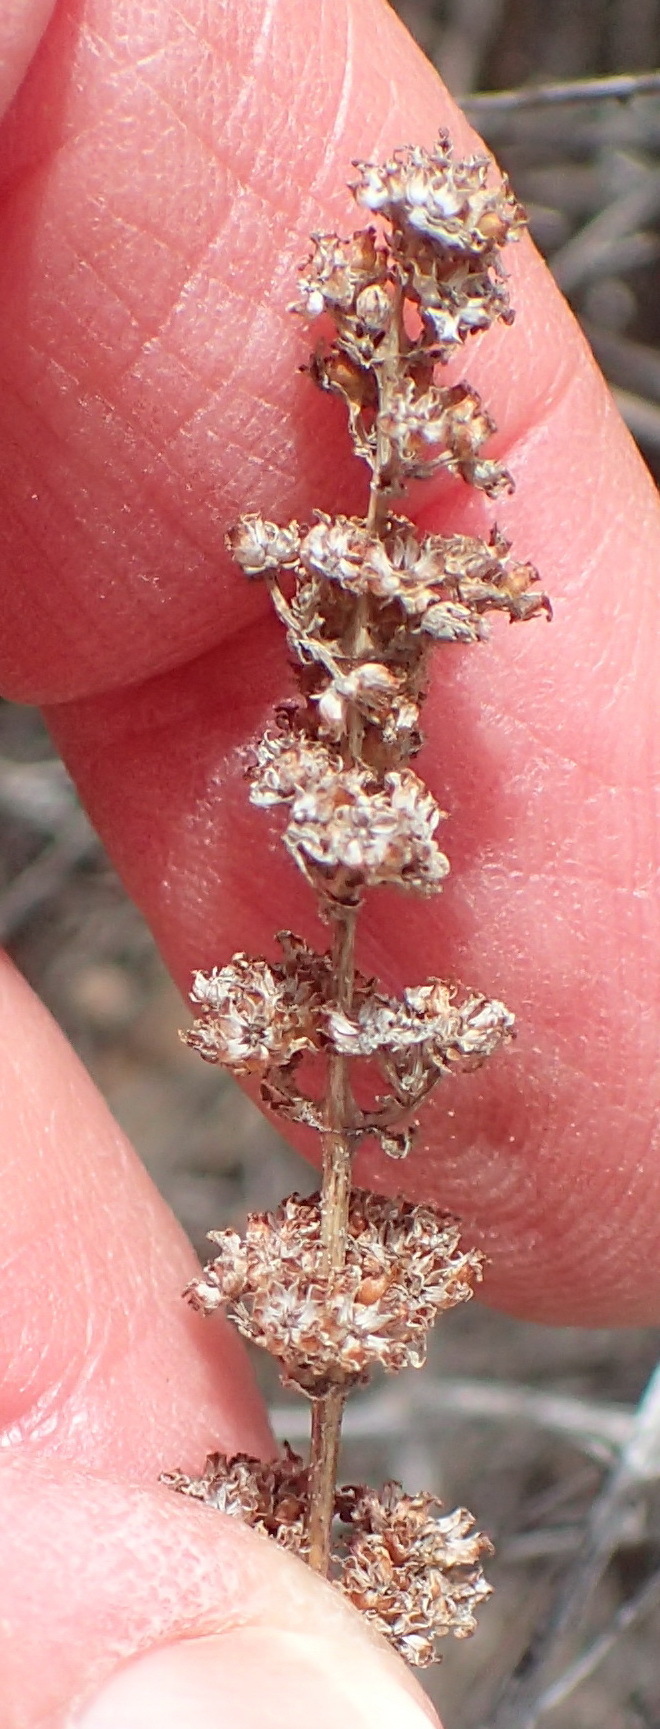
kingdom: Plantae
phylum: Tracheophyta
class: Magnoliopsida
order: Saxifragales
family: Crassulaceae
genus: Crassula
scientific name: Crassula capitella
